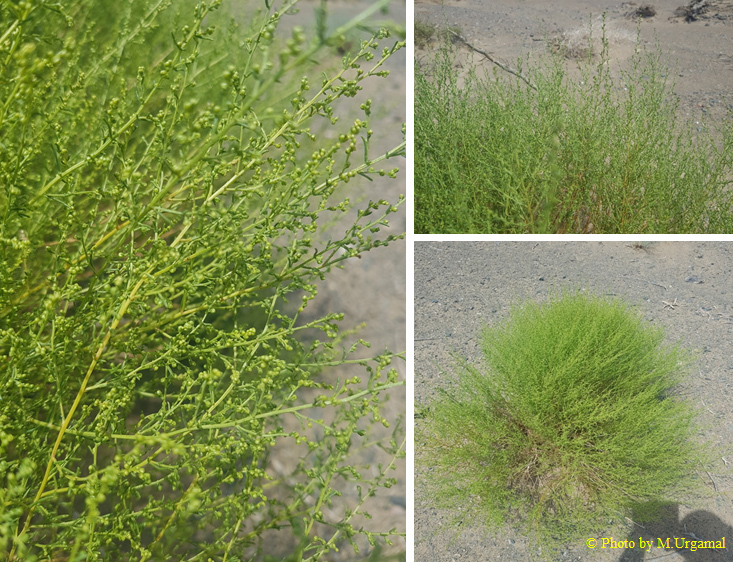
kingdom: Plantae
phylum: Tracheophyta
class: Magnoliopsida
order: Asterales
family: Asteraceae
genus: Artemisia
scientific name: Artemisia xanthochloa
